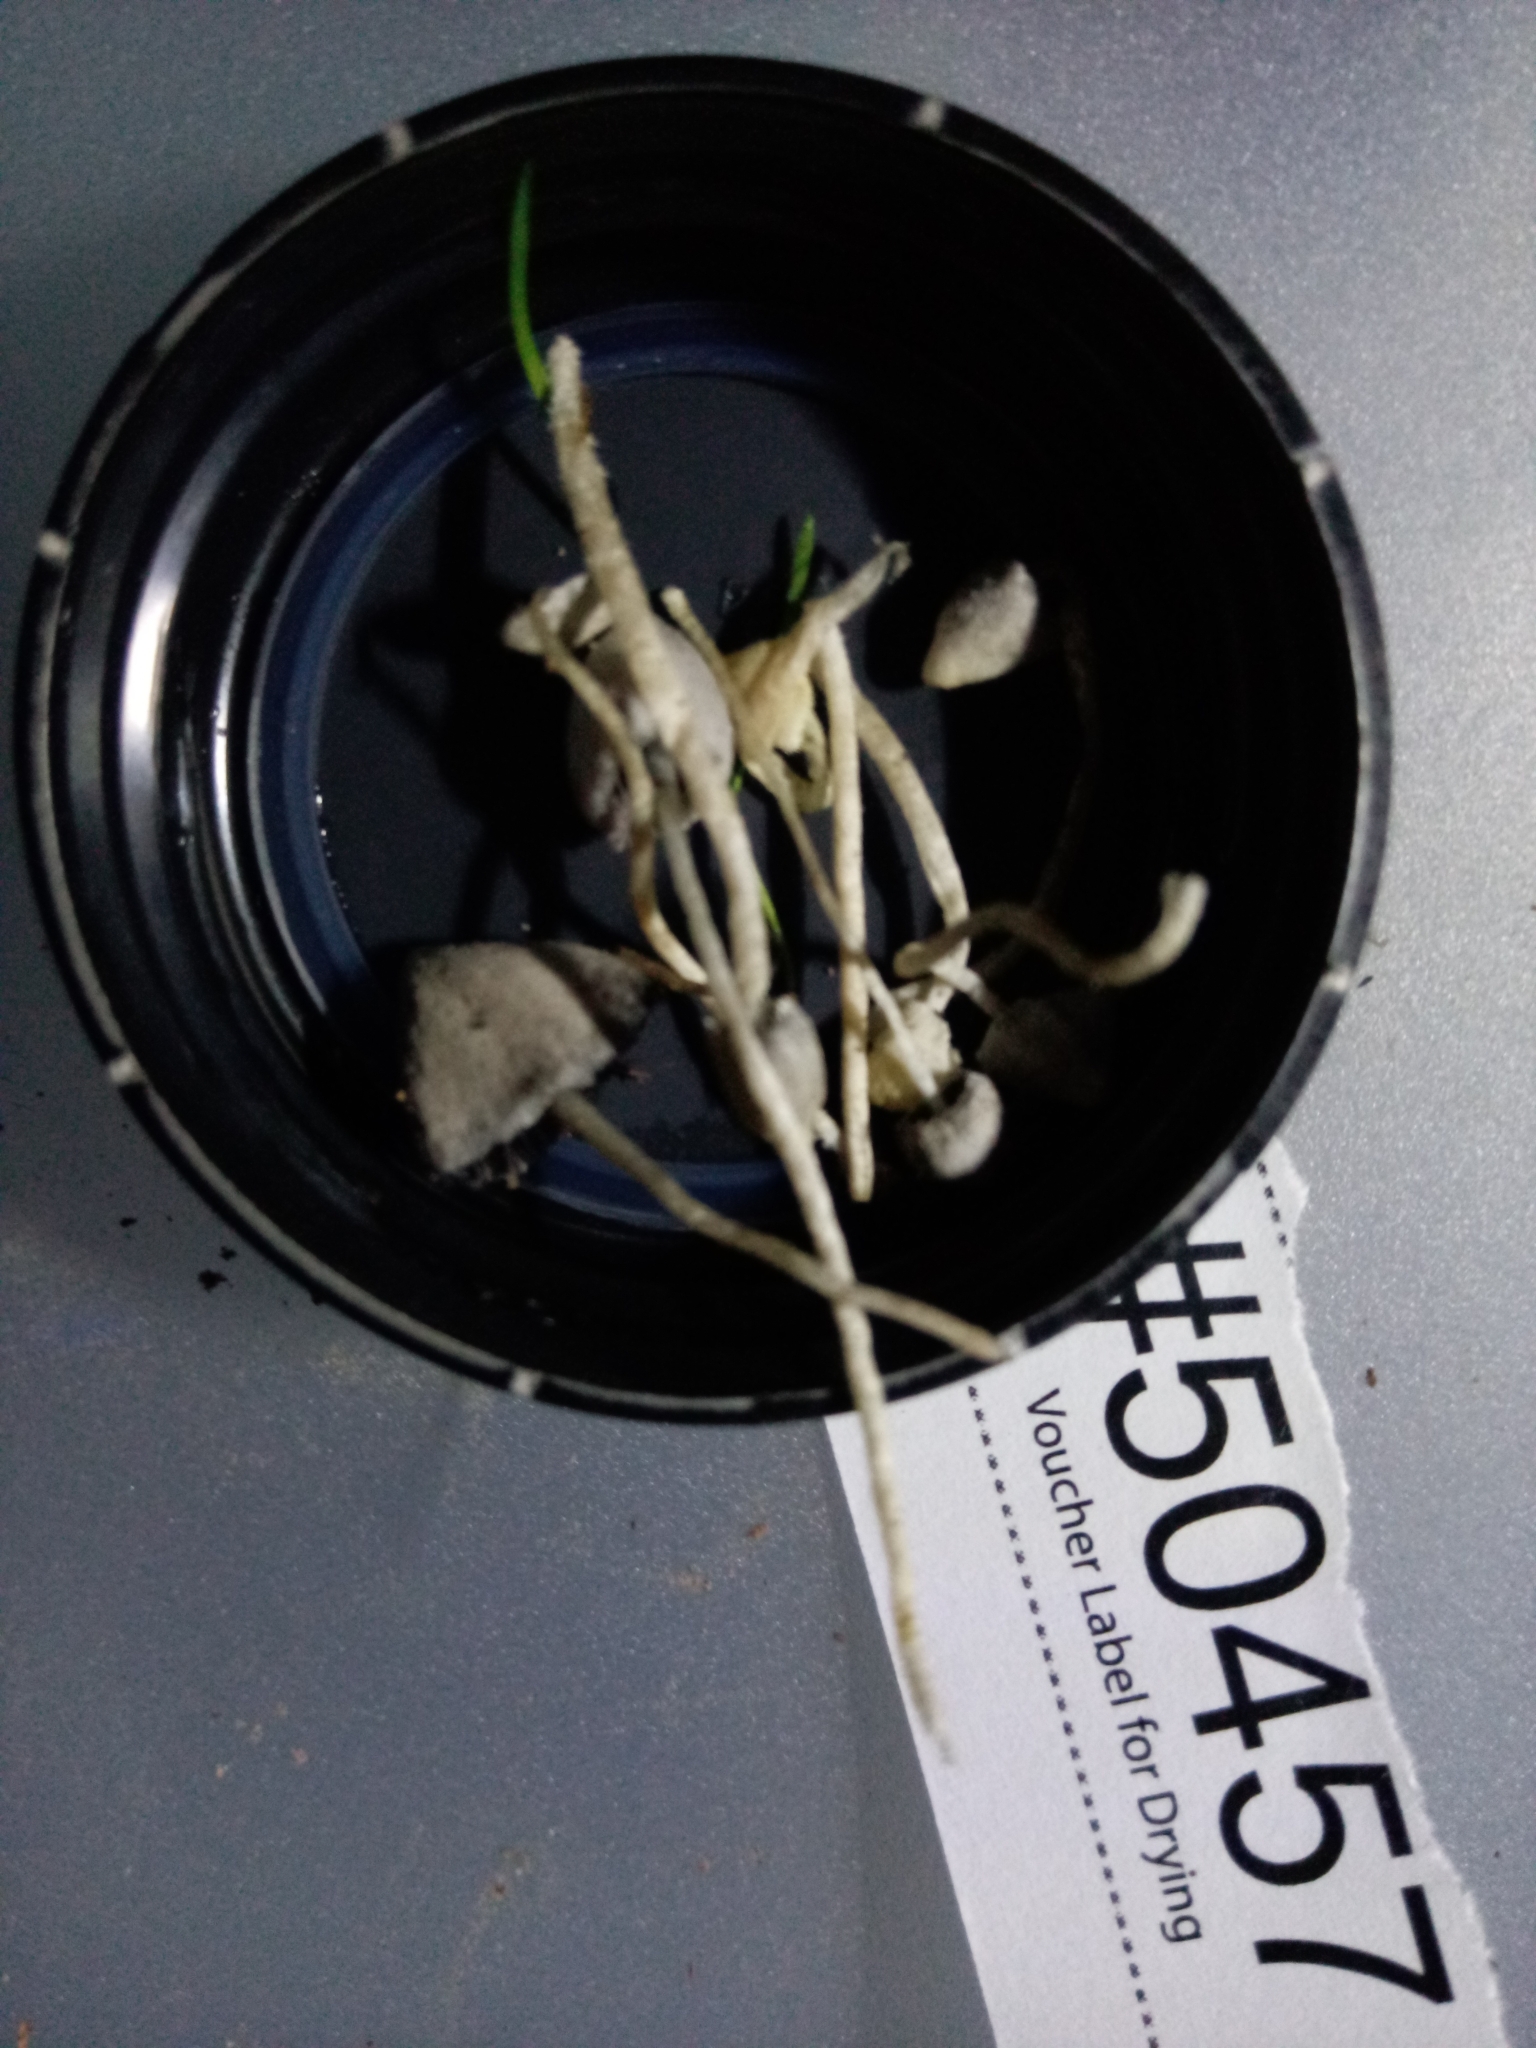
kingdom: Fungi
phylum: Basidiomycota
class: Agaricomycetes
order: Agaricales
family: Psathyrellaceae
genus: Psathyrella
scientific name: Psathyrella debilis
